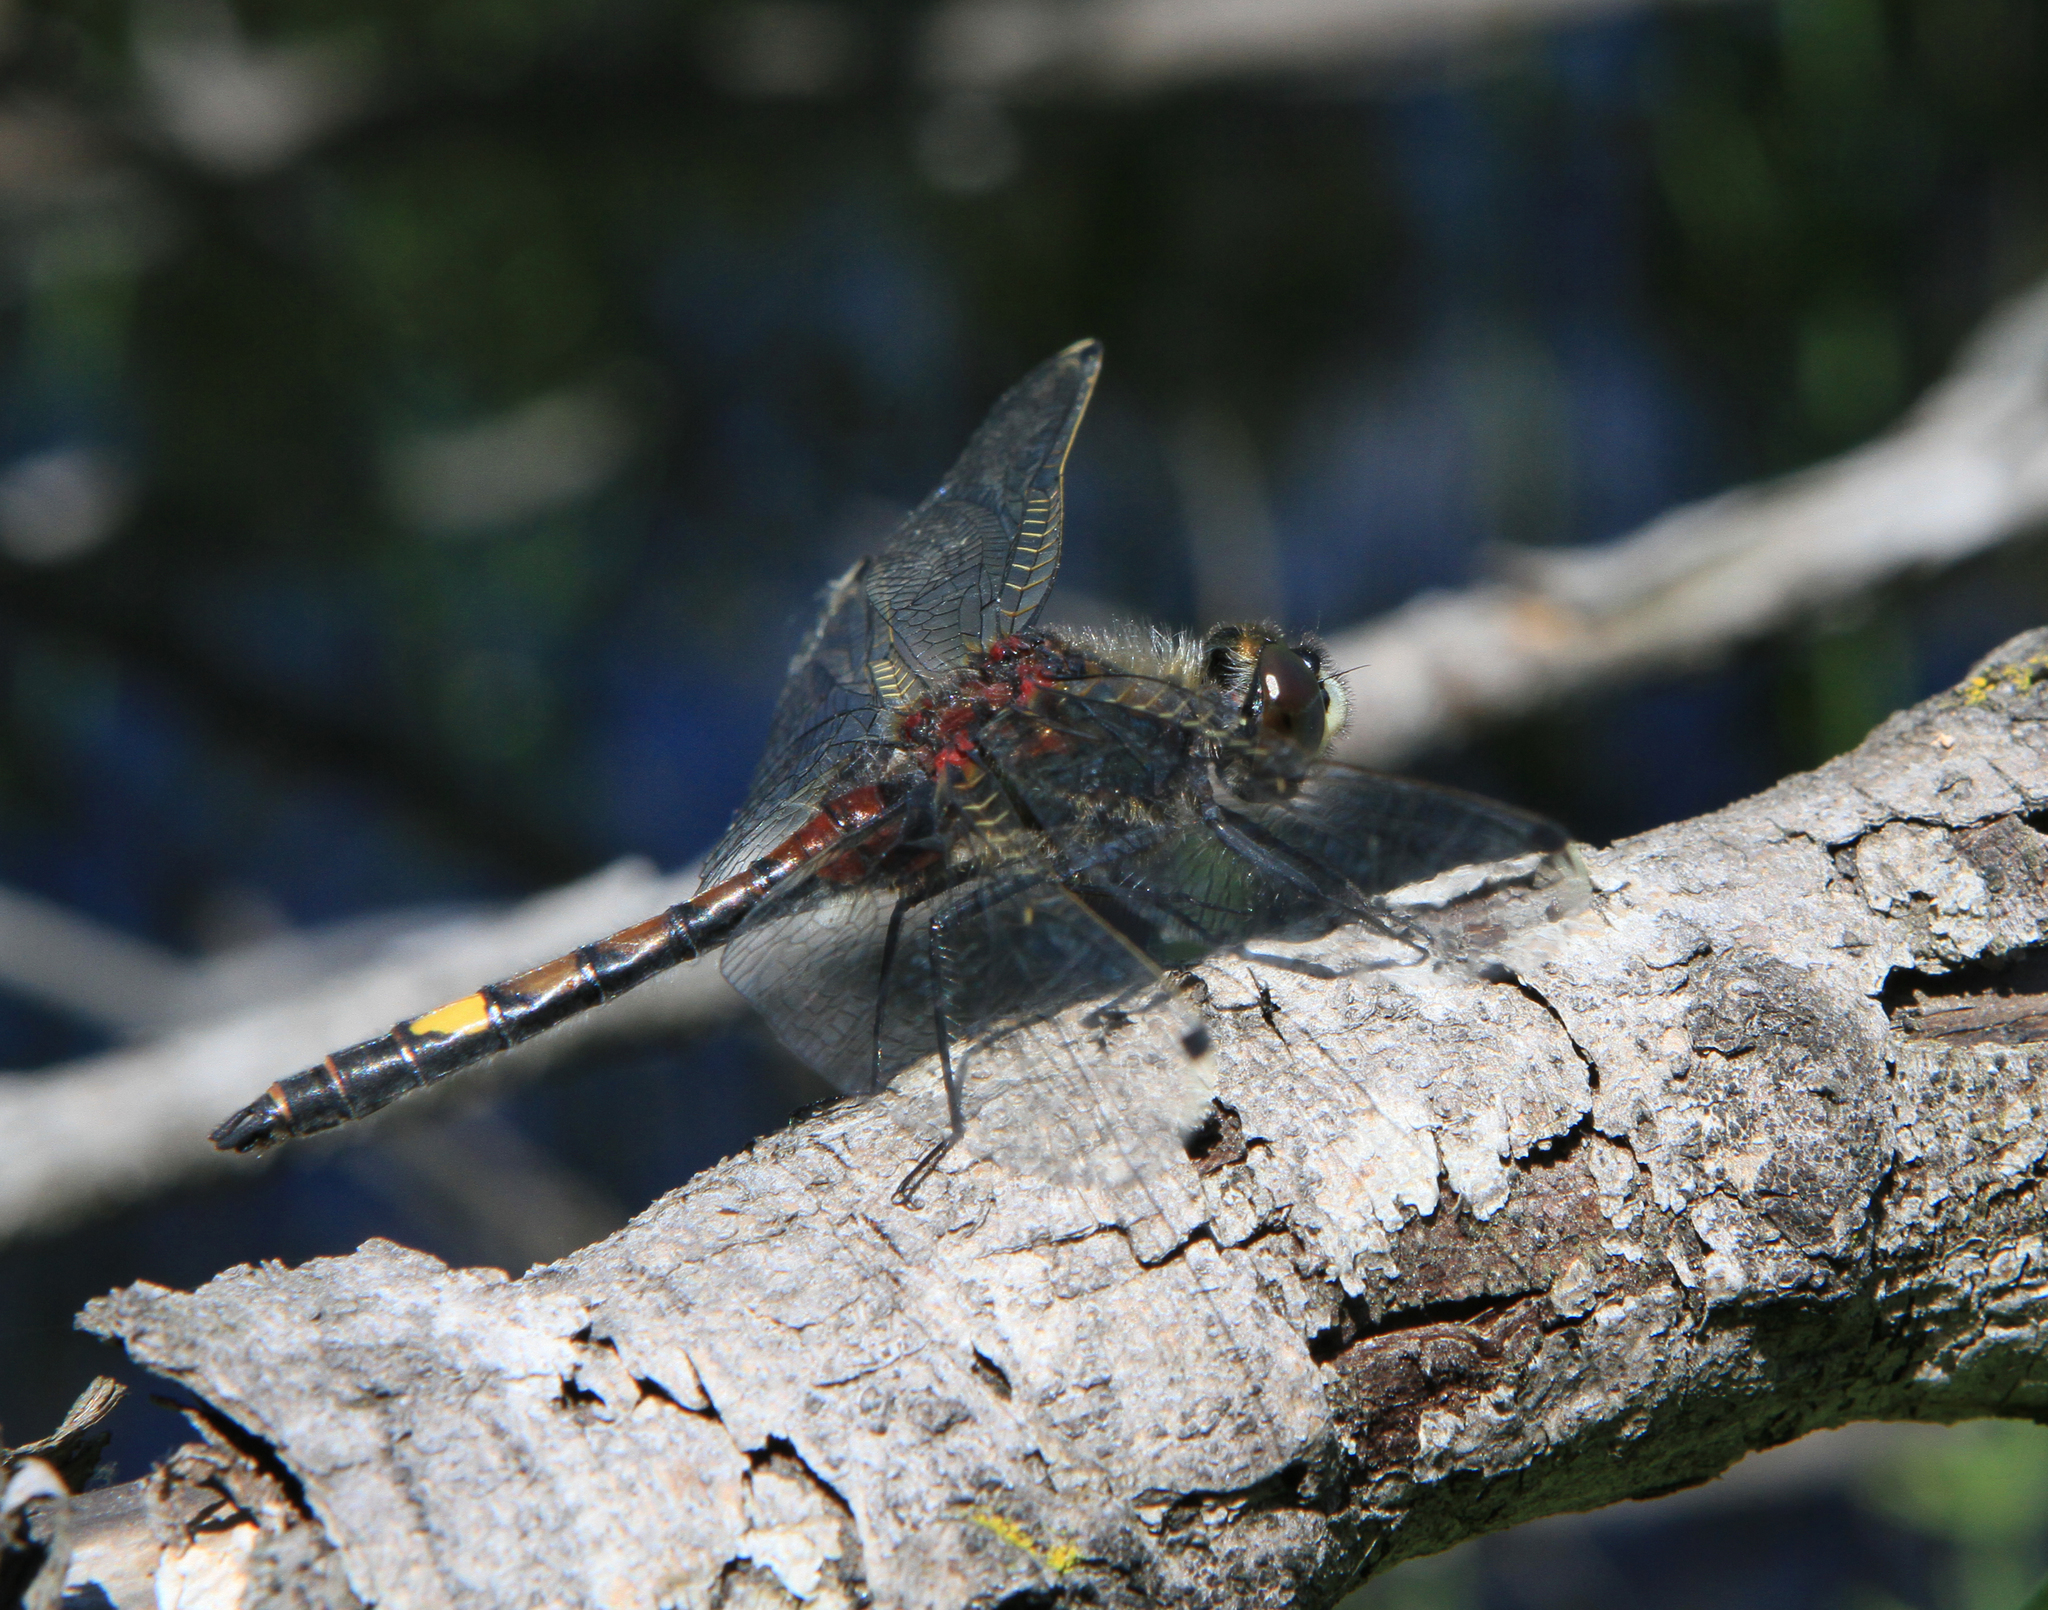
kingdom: Animalia
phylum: Arthropoda
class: Insecta
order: Odonata
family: Libellulidae
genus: Leucorrhinia
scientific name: Leucorrhinia pectoralis
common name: Yellow-spotted whiteface
